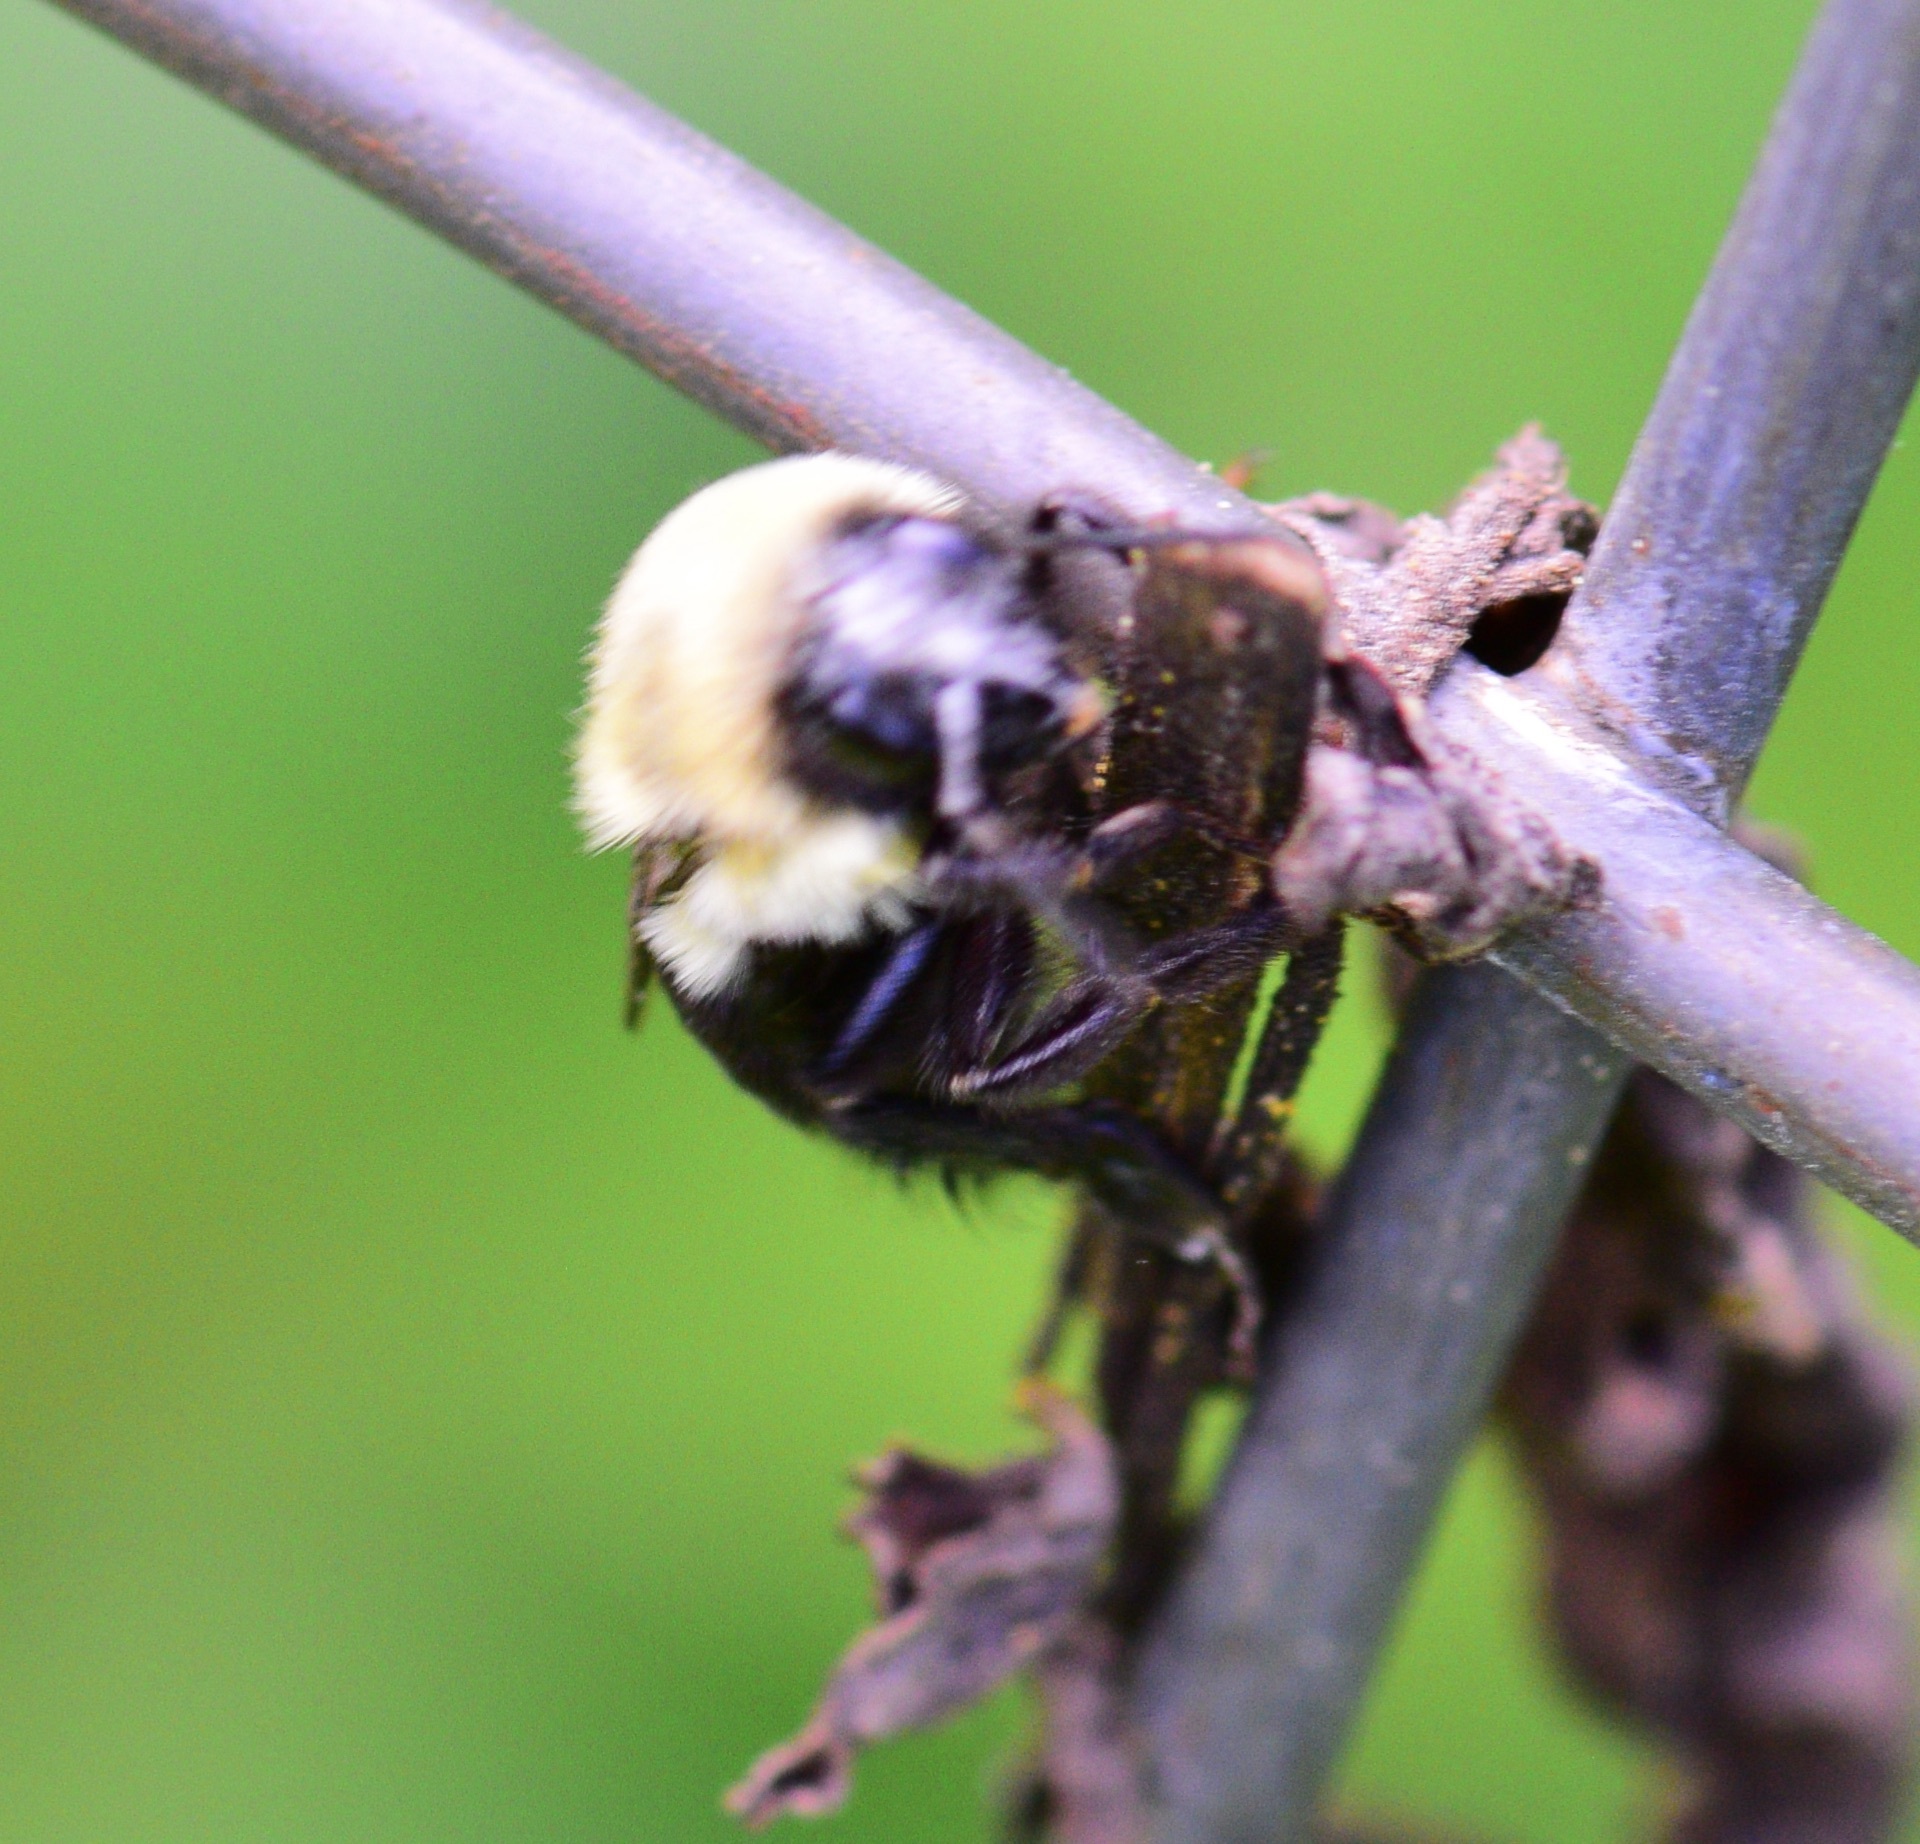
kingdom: Animalia
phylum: Arthropoda
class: Insecta
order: Hymenoptera
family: Apidae
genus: Bombus
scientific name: Bombus impatiens
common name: Common eastern bumble bee
